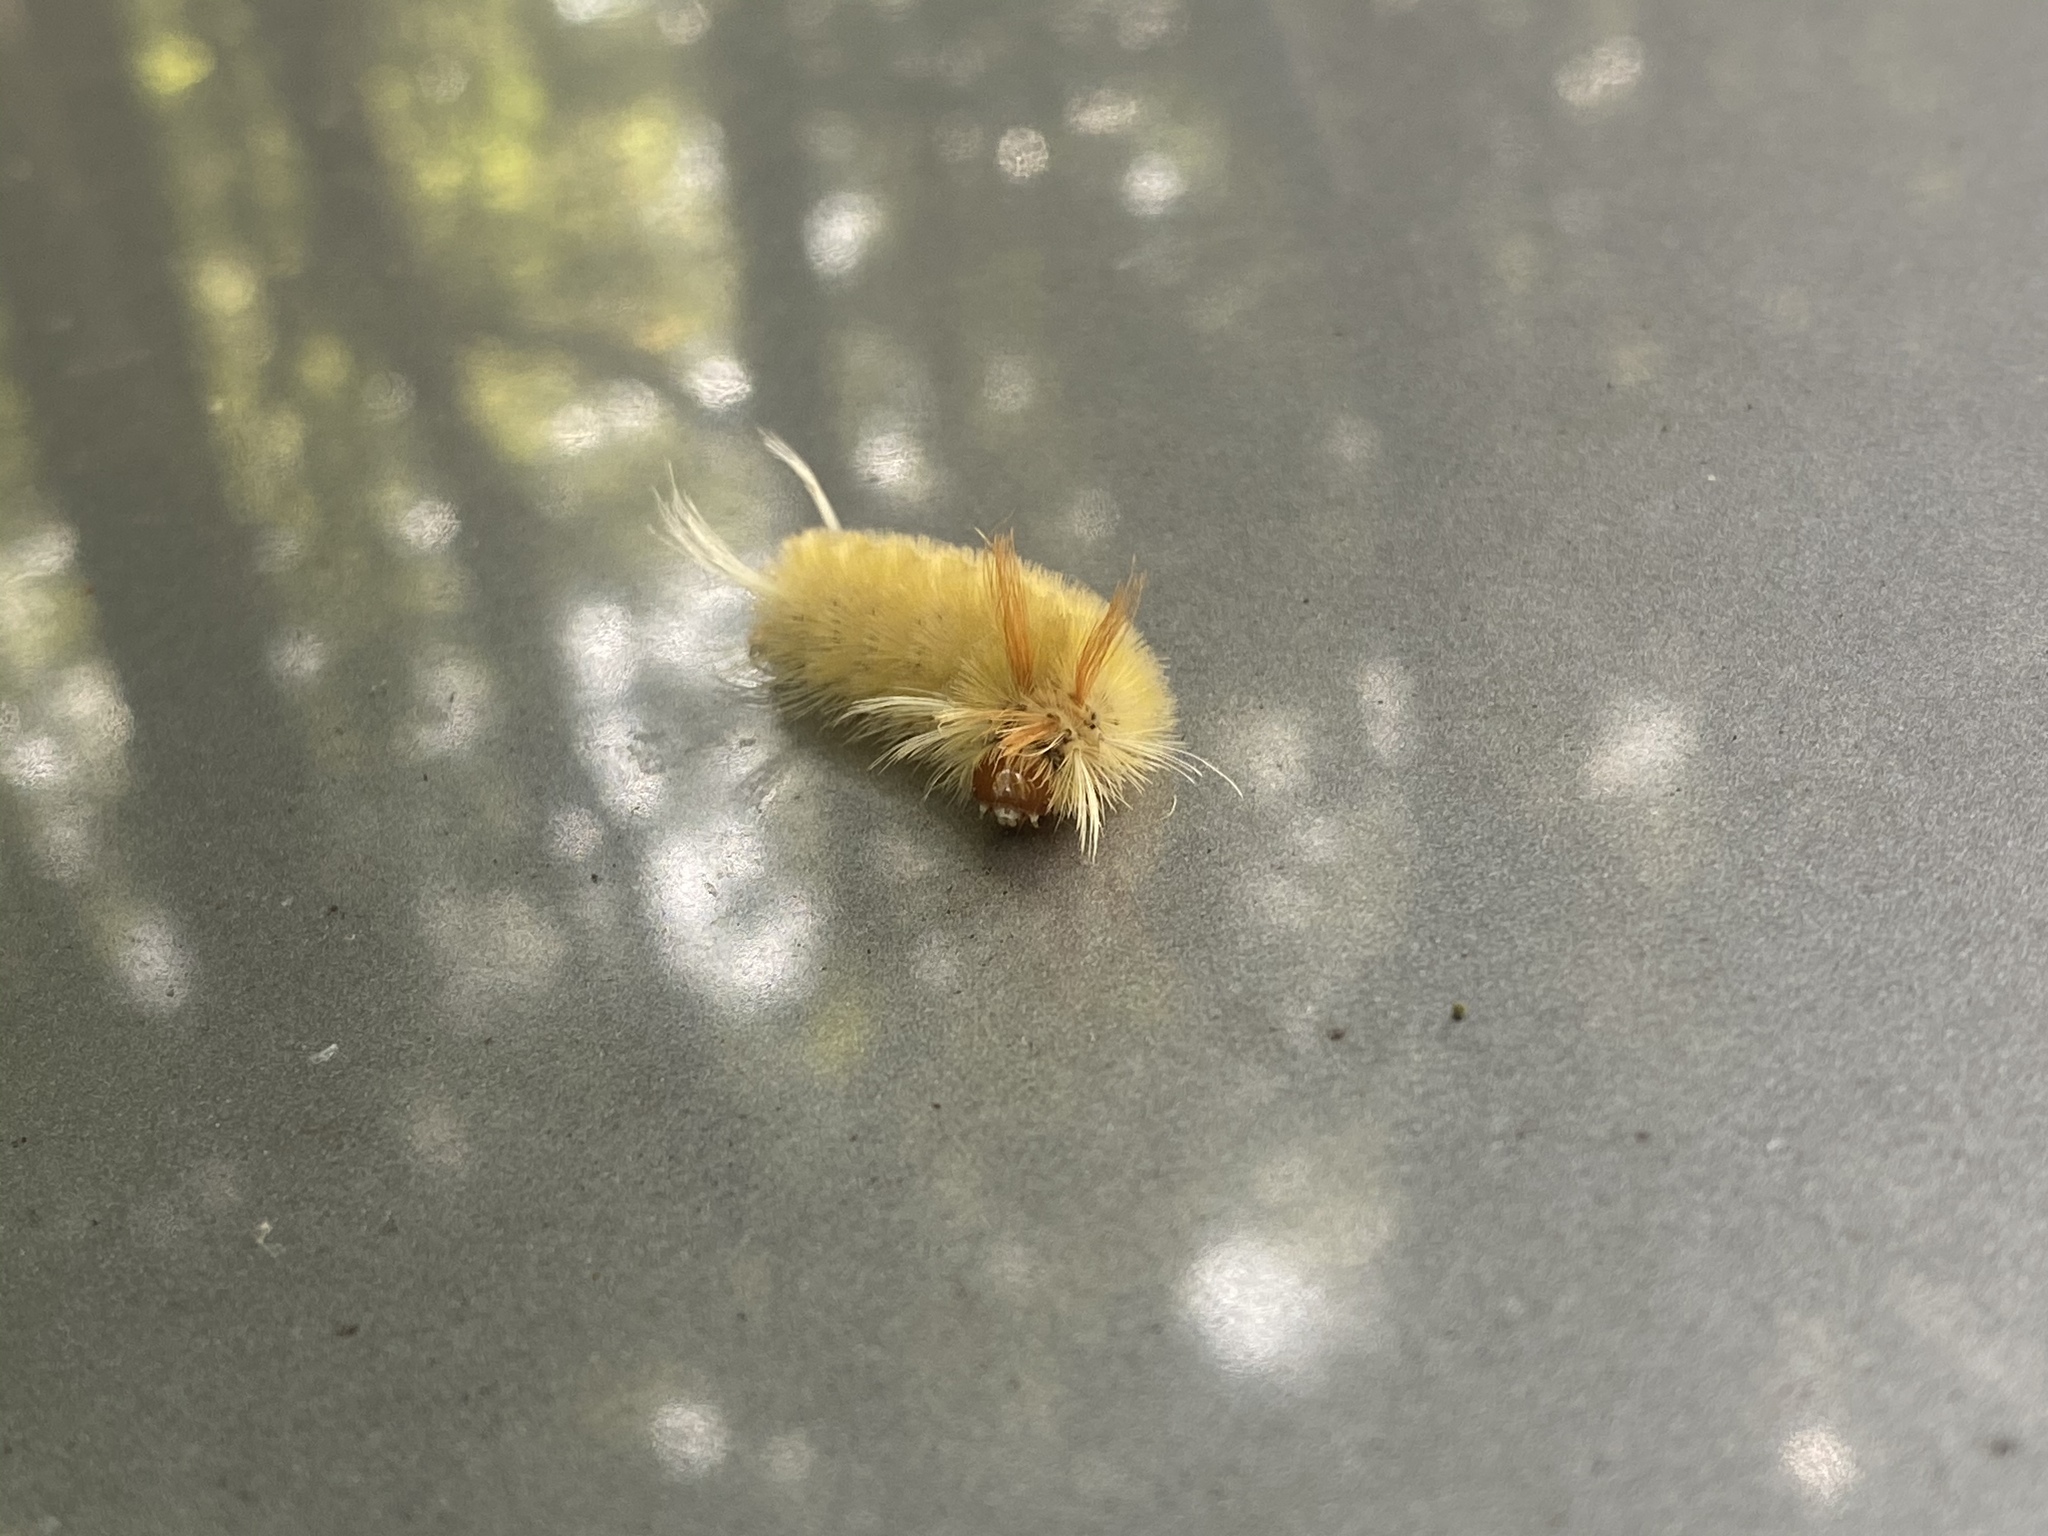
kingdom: Animalia
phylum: Arthropoda
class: Insecta
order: Lepidoptera
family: Erebidae
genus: Halysidota
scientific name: Halysidota harrisii
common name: Sycamore tussock moth
